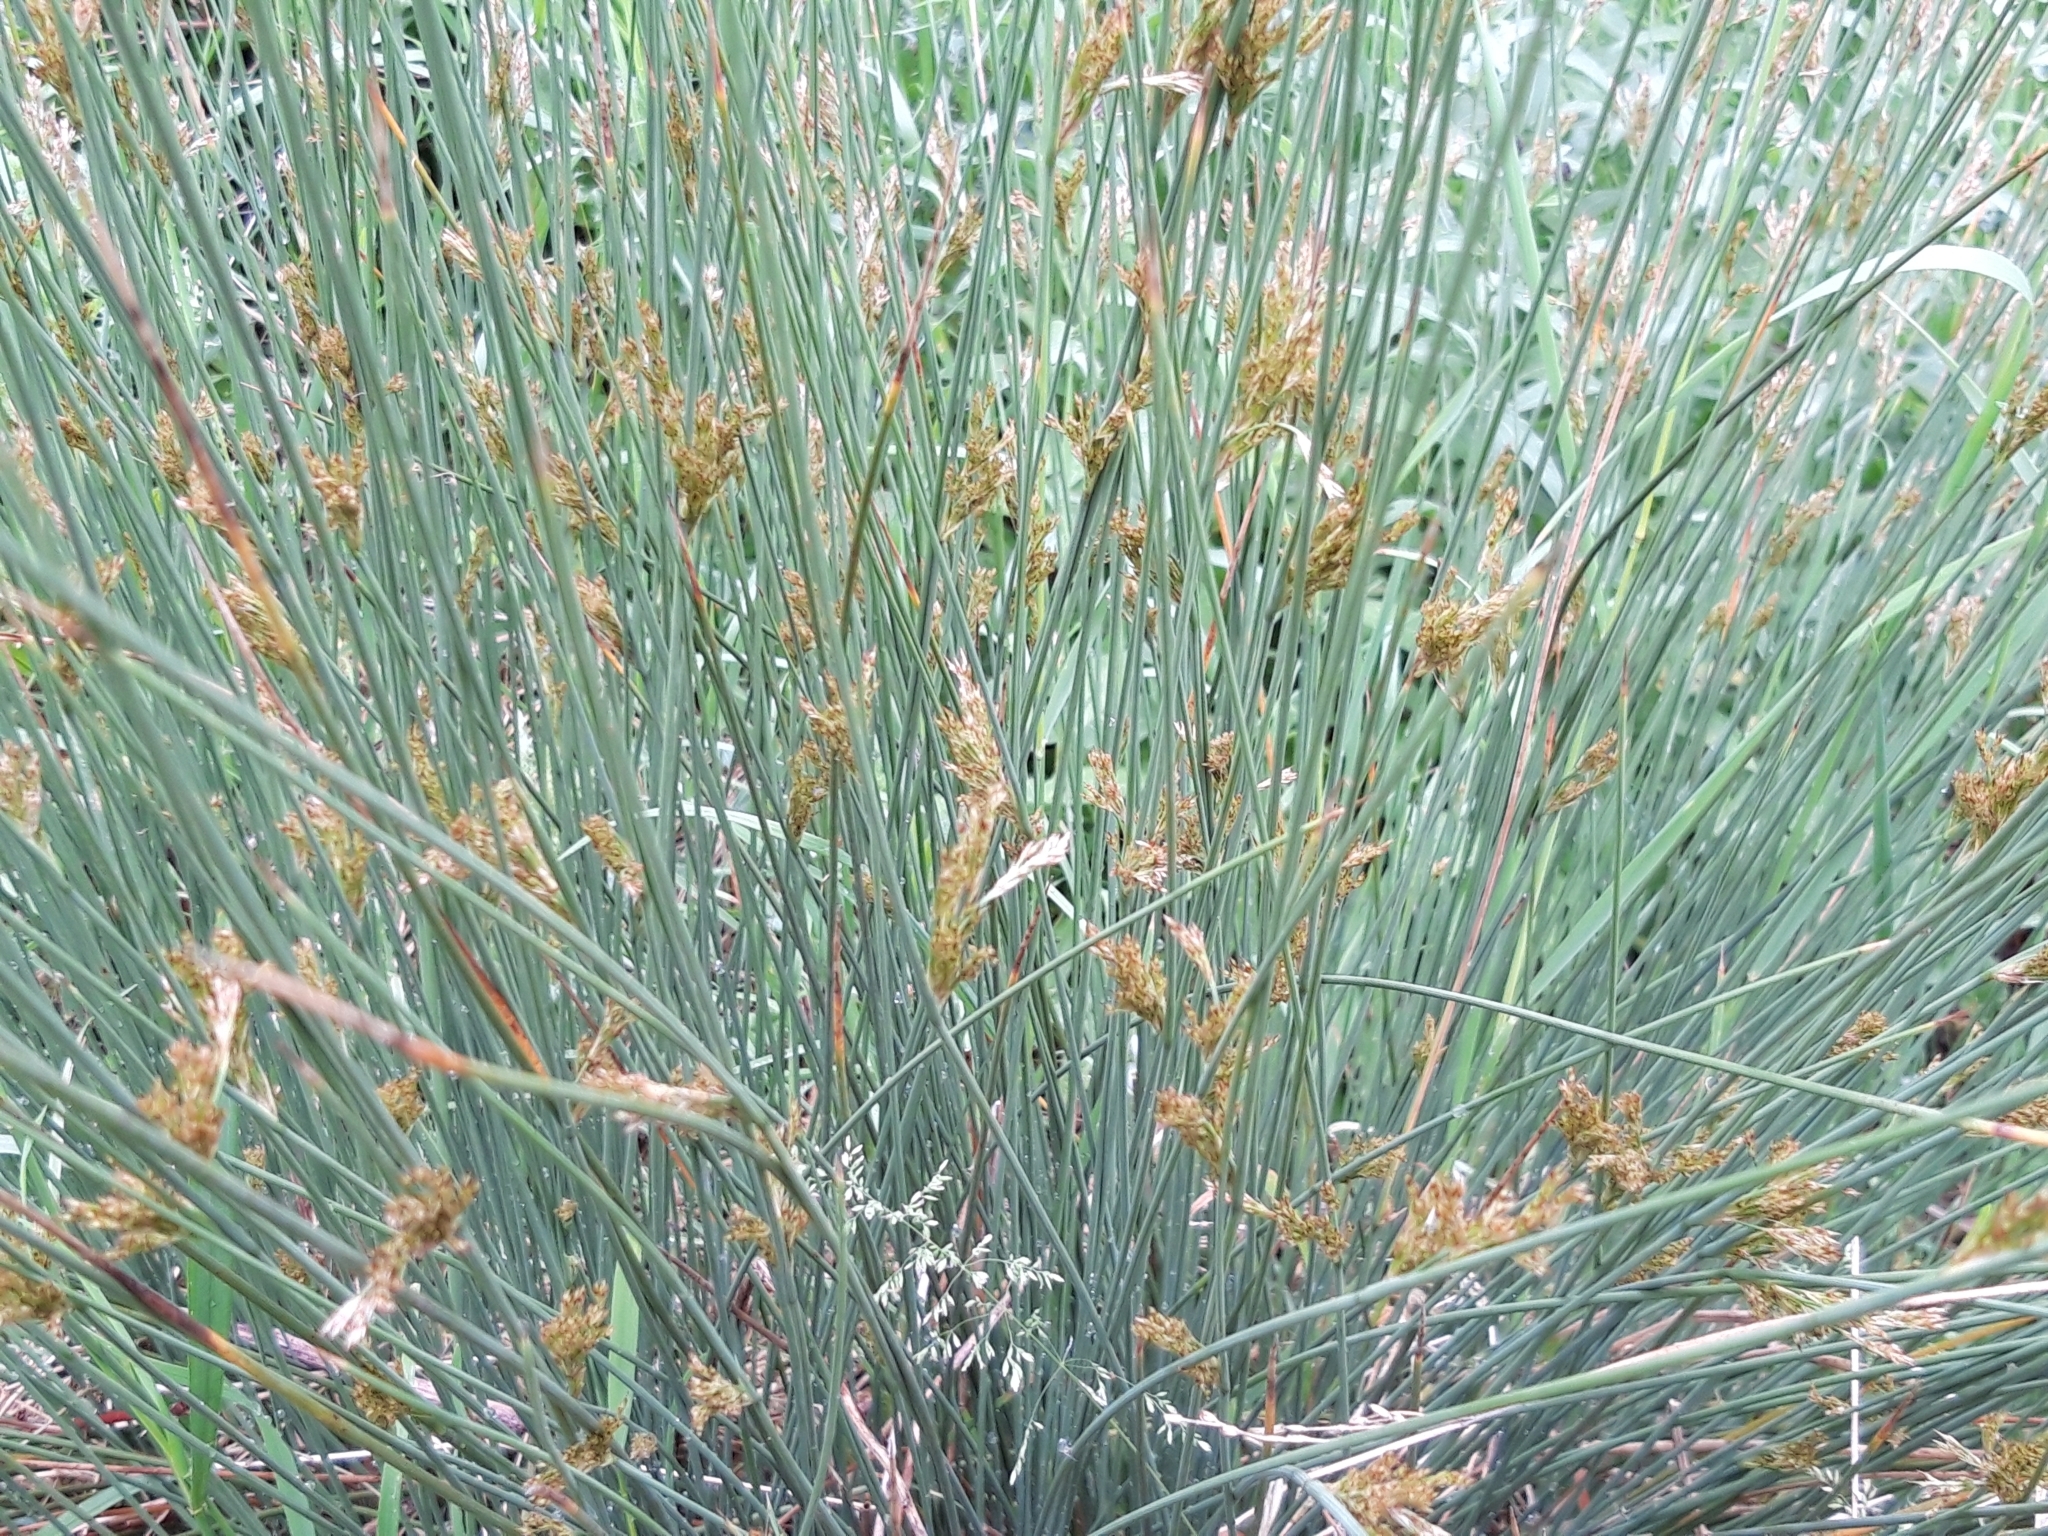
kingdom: Plantae
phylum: Tracheophyta
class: Liliopsida
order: Poales
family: Juncaceae
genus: Juncus
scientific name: Juncus inflexus
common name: Hard rush
